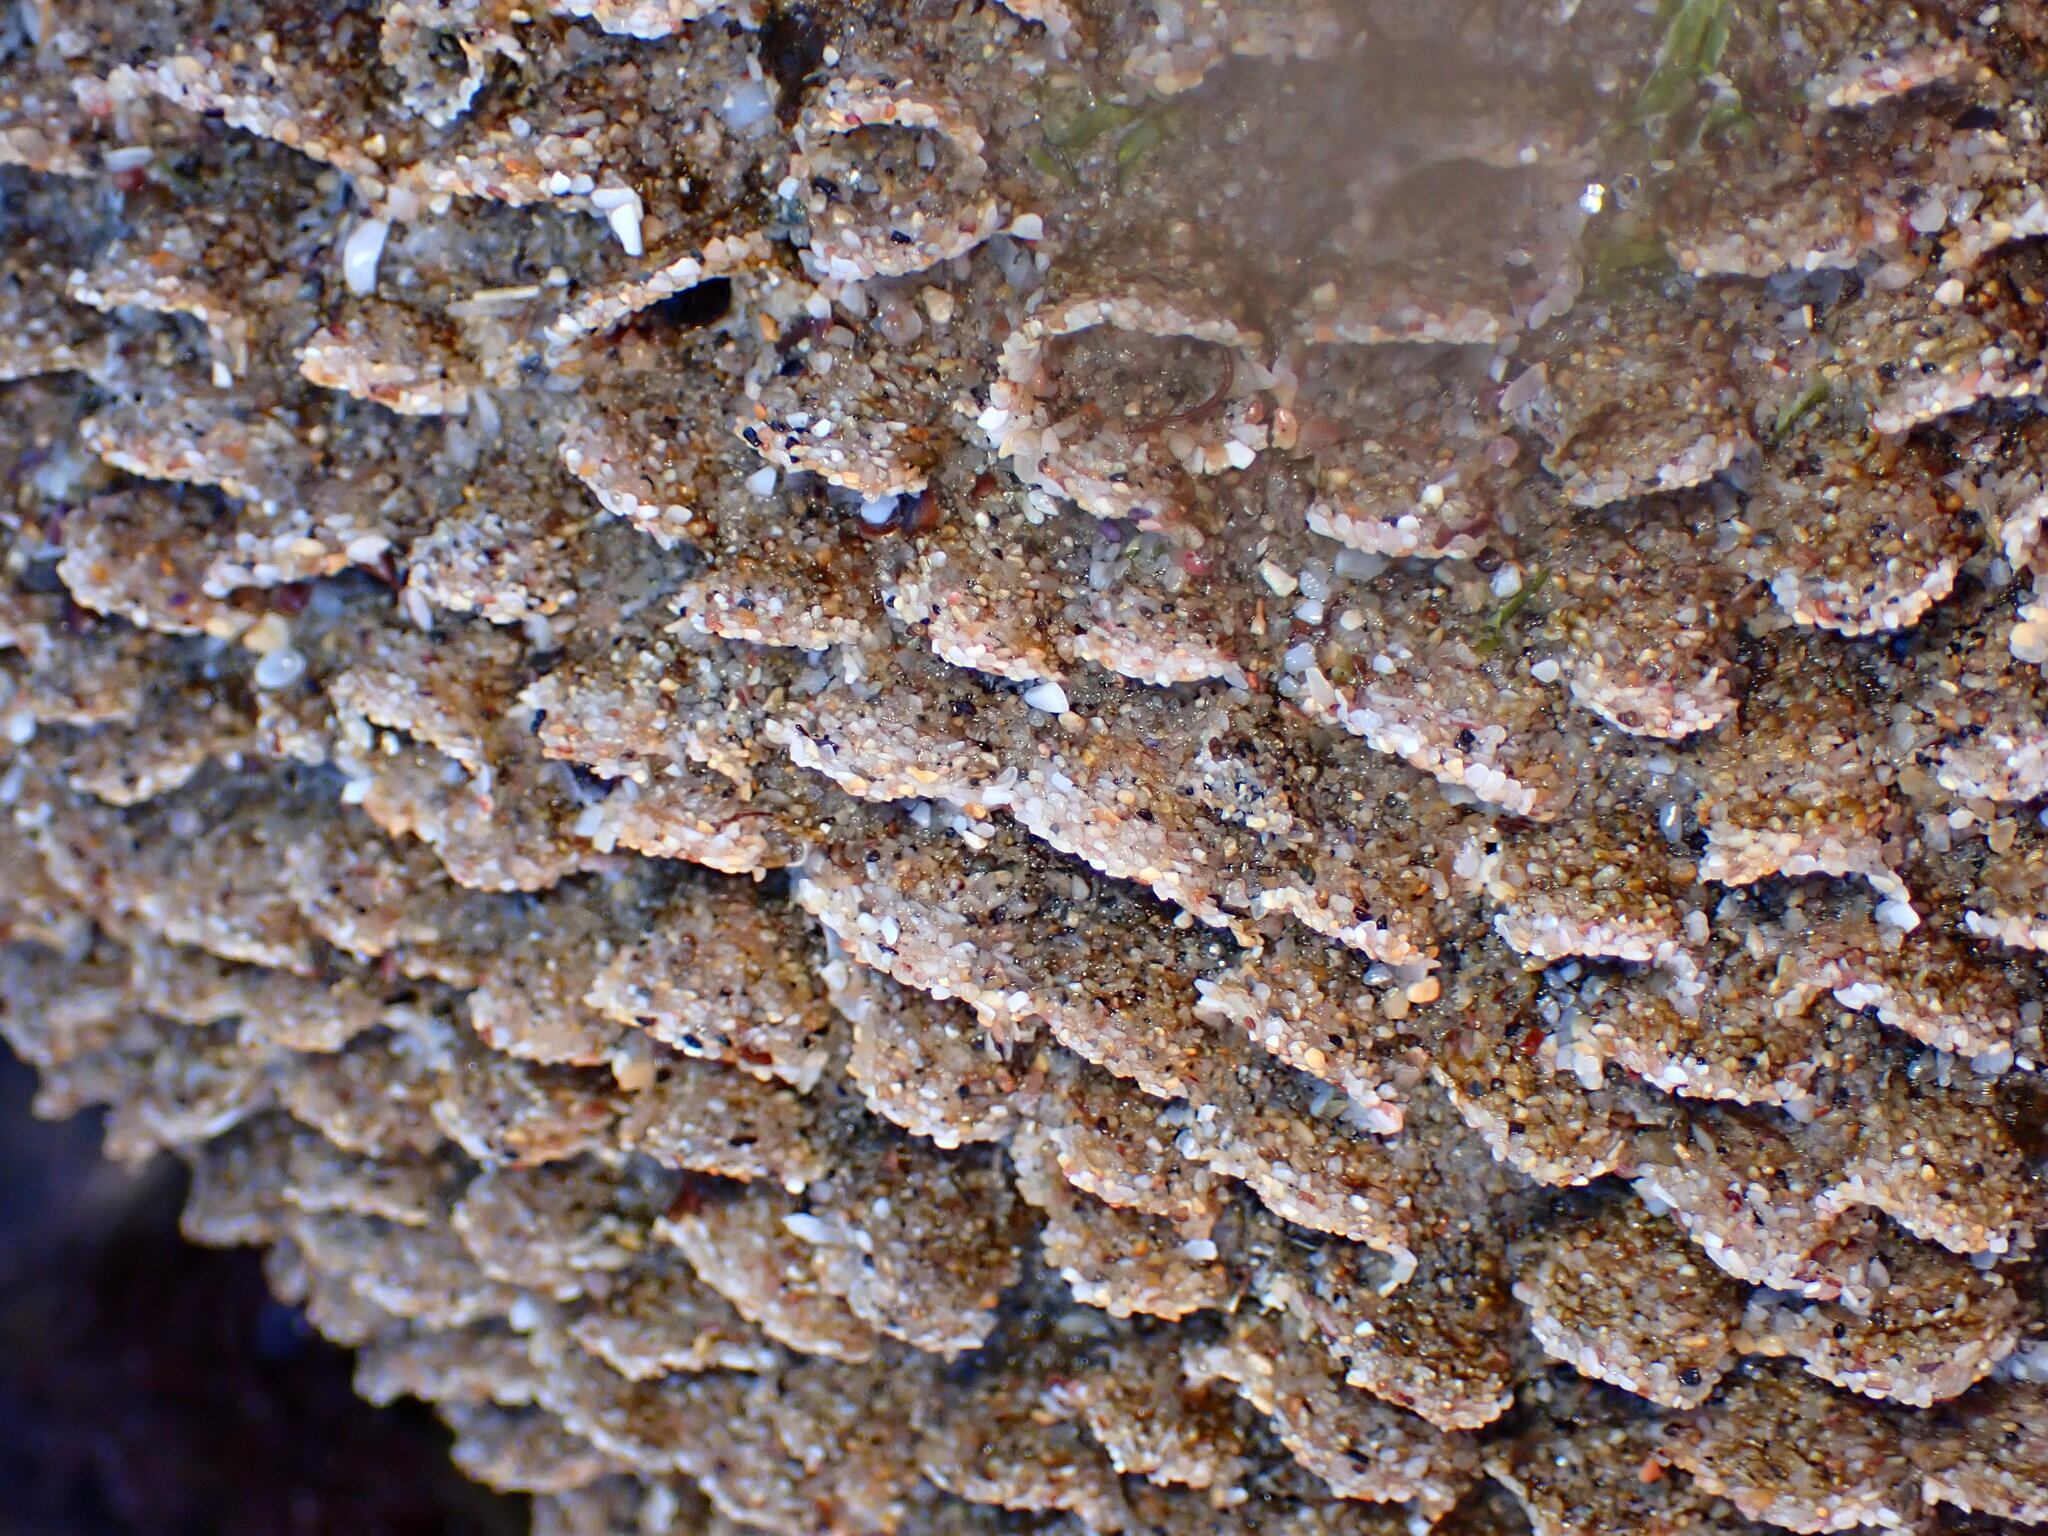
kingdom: Animalia
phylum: Annelida
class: Polychaeta
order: Sabellida
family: Sabellariidae
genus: Phragmatopoma
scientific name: Phragmatopoma californica
